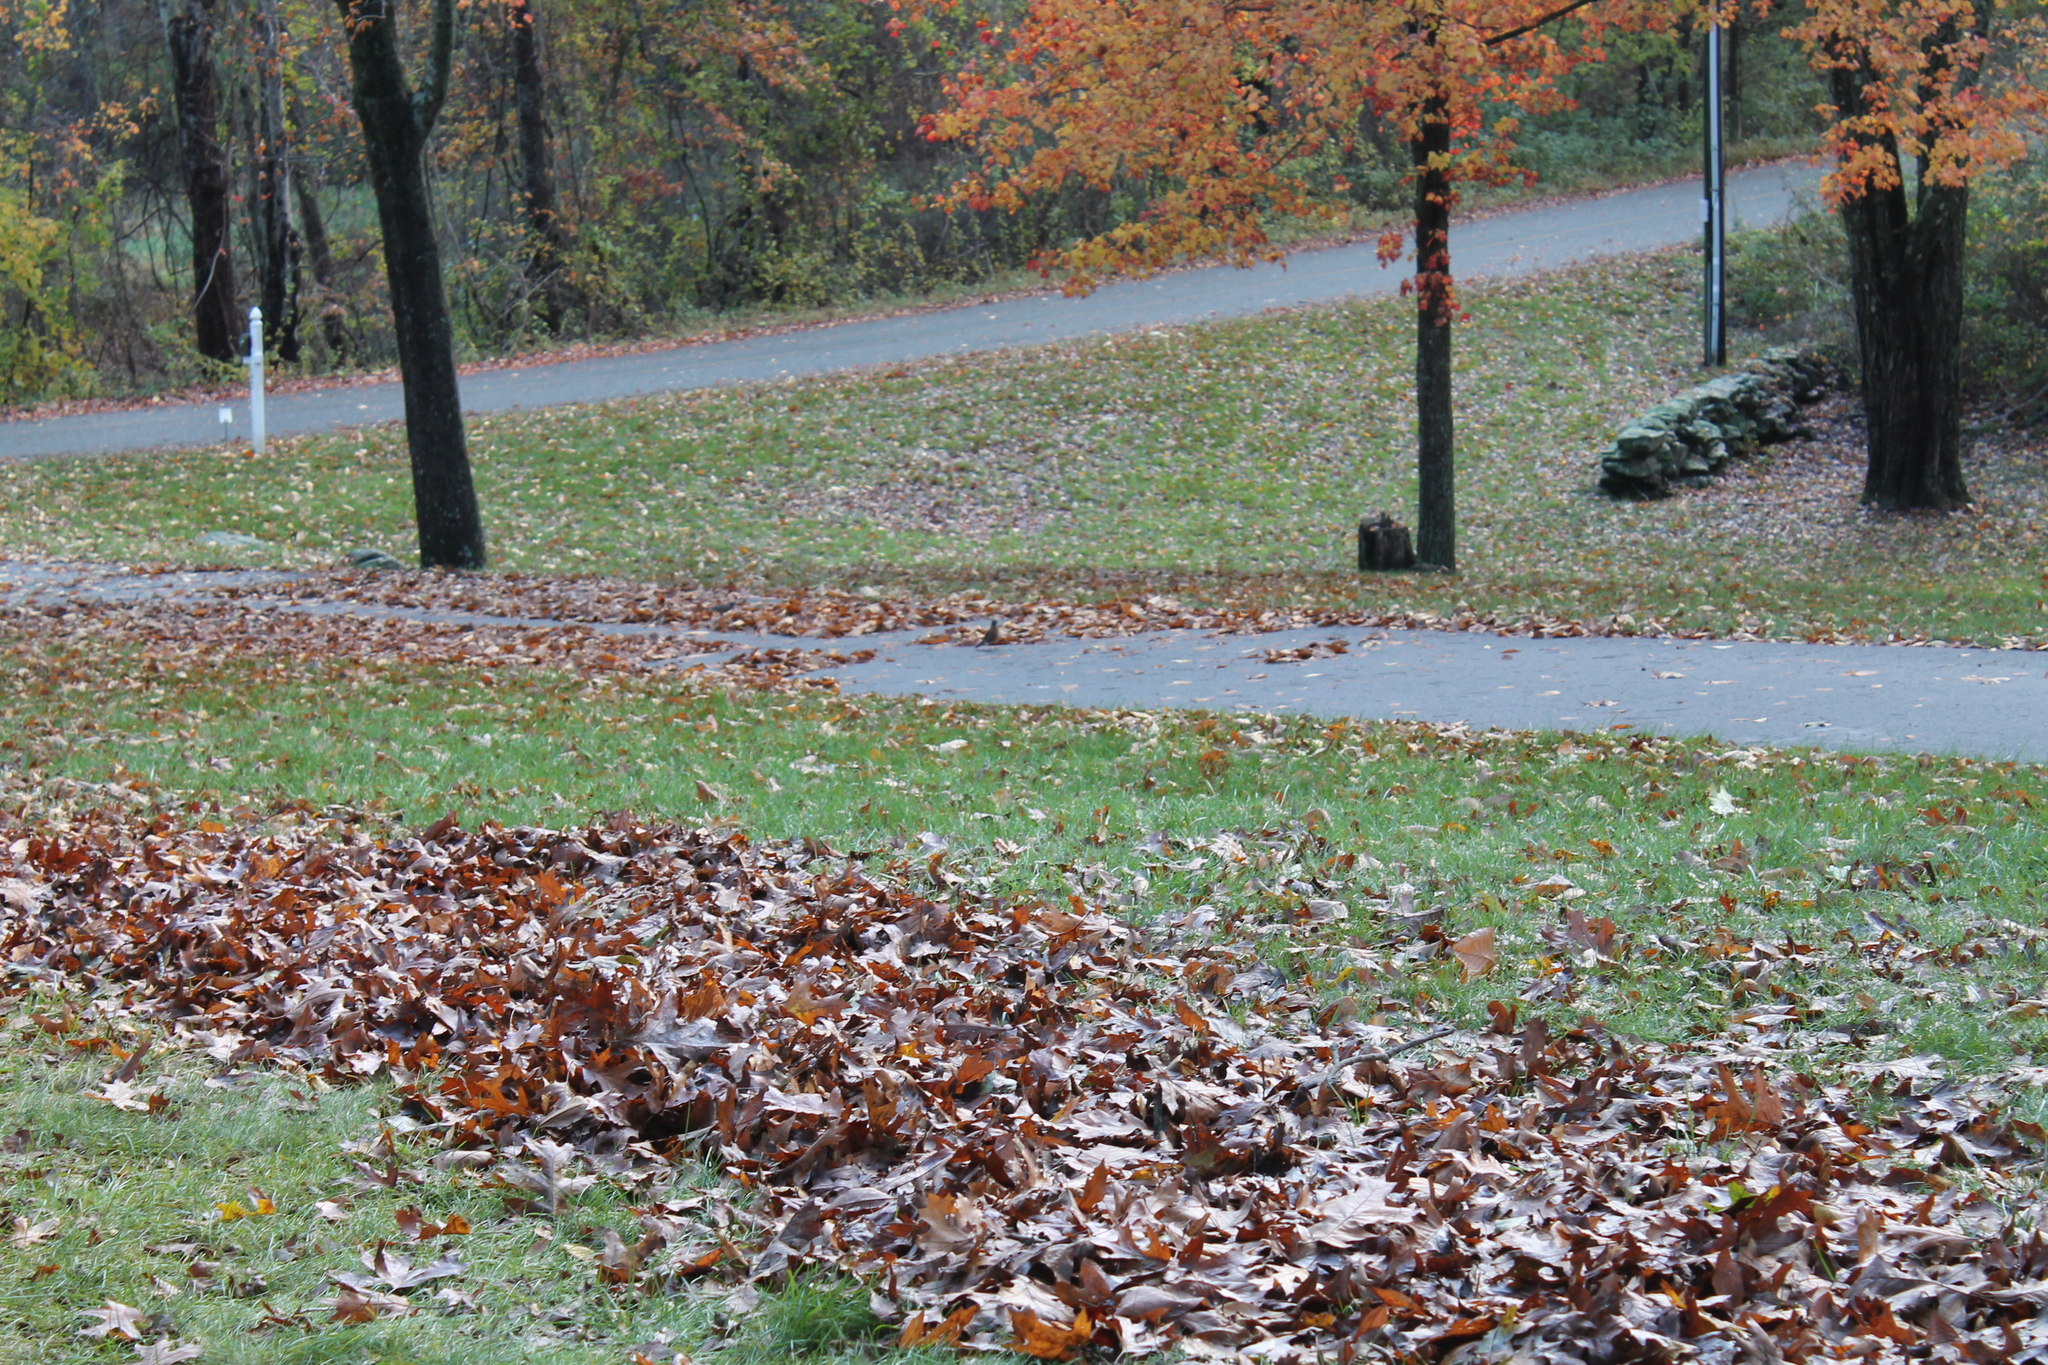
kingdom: Animalia
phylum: Chordata
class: Aves
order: Passeriformes
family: Turdidae
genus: Turdus
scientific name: Turdus migratorius
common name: American robin
